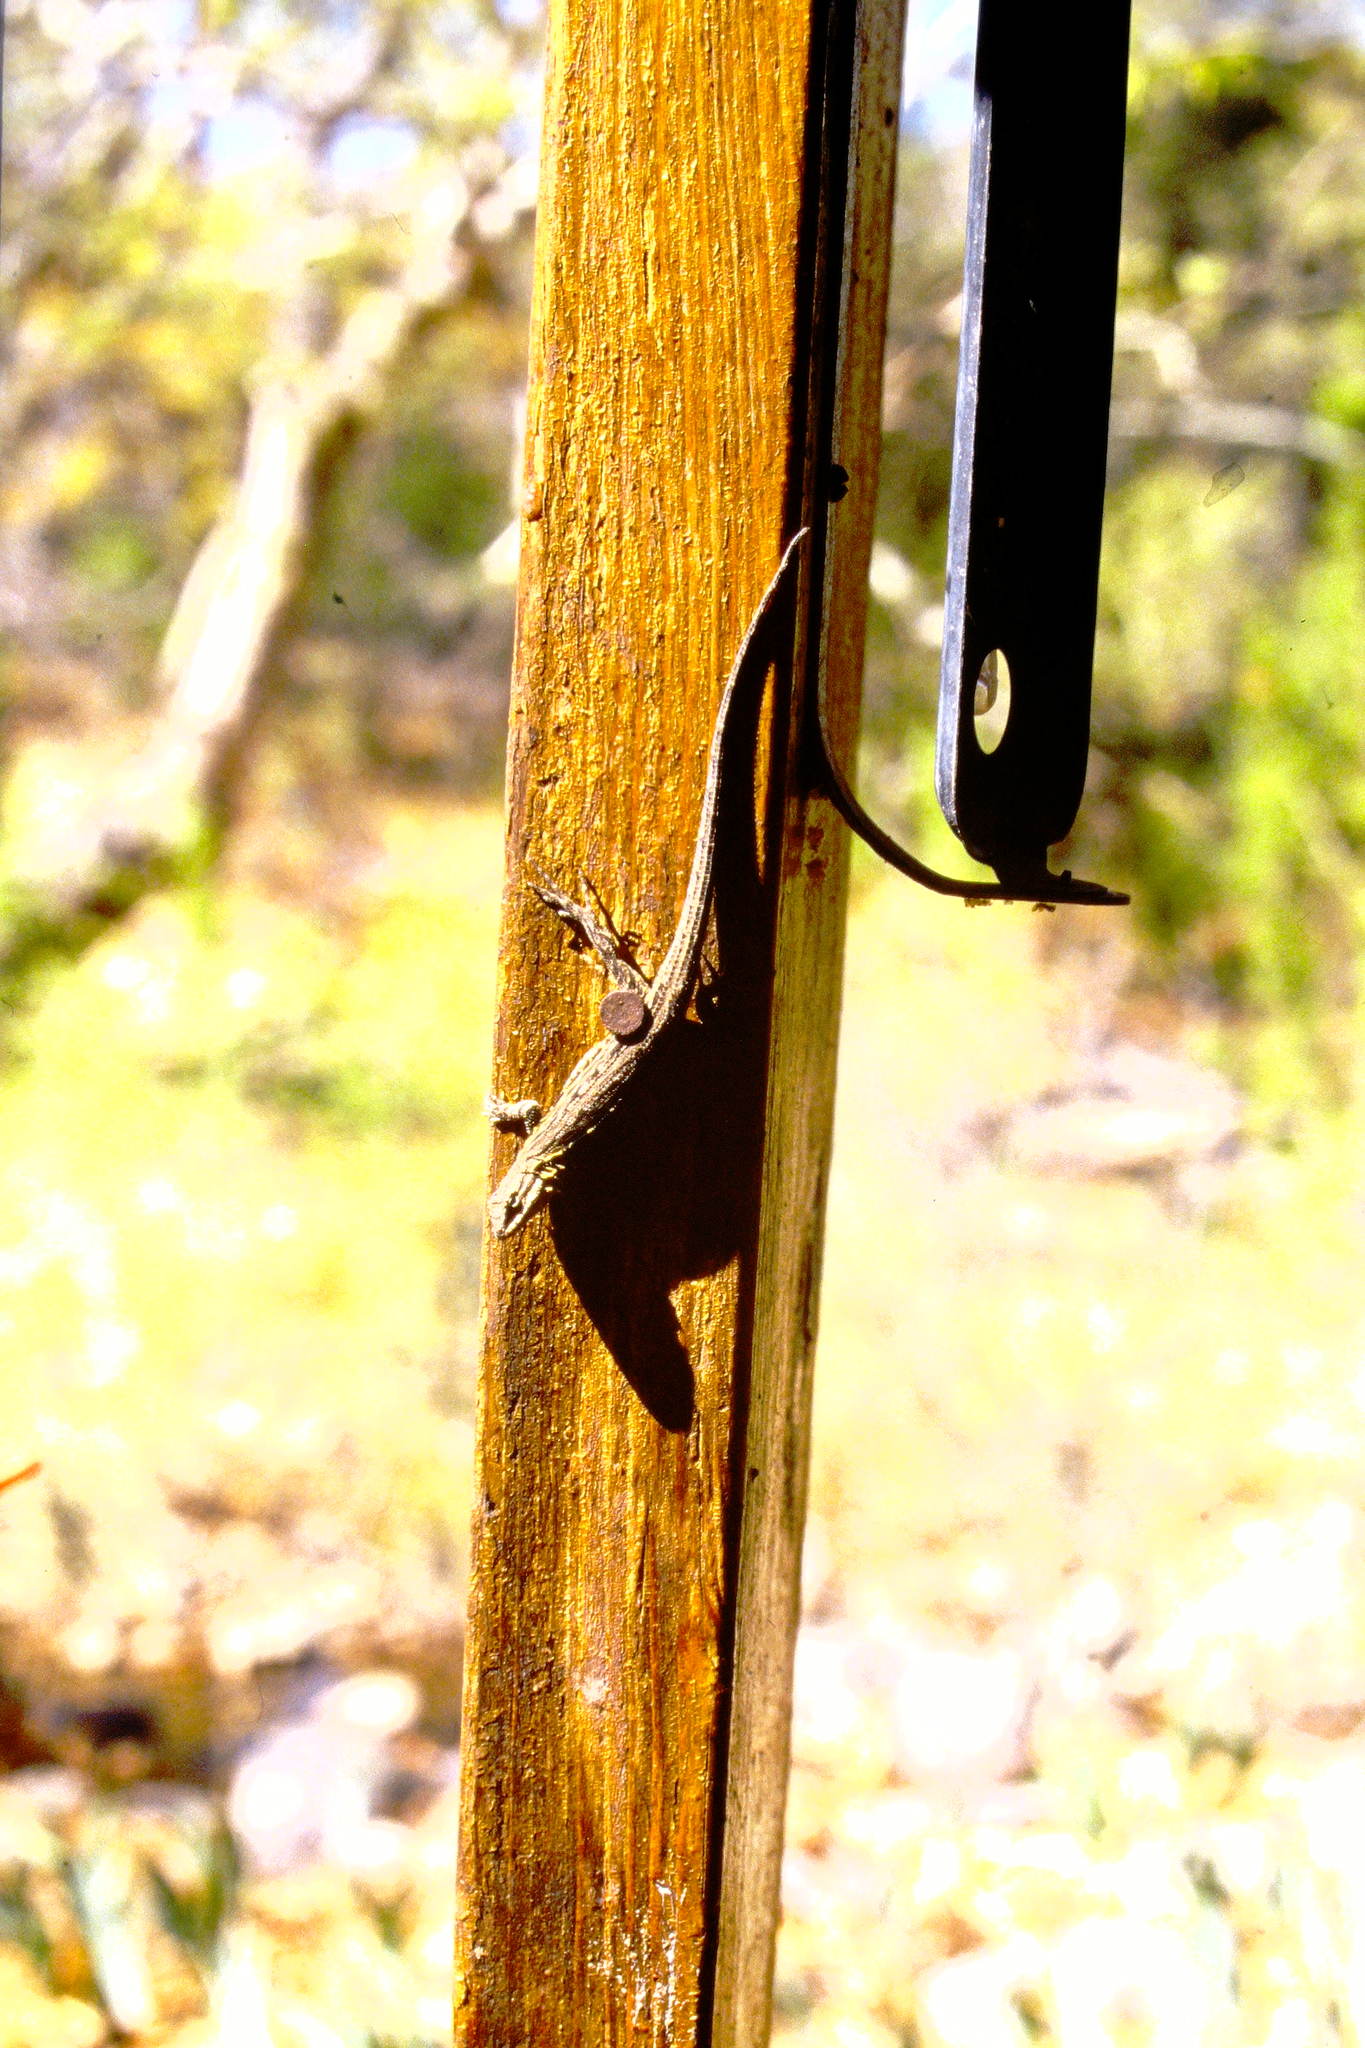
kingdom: Animalia
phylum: Chordata
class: Squamata
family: Phrynosomatidae
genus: Urosaurus
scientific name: Urosaurus ornatus
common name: Ornate tree lizard
